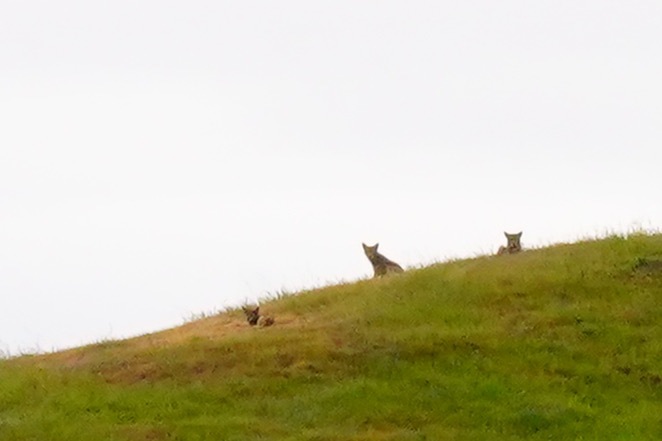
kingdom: Animalia
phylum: Chordata
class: Mammalia
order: Carnivora
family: Canidae
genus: Canis
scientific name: Canis latrans
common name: Coyote
